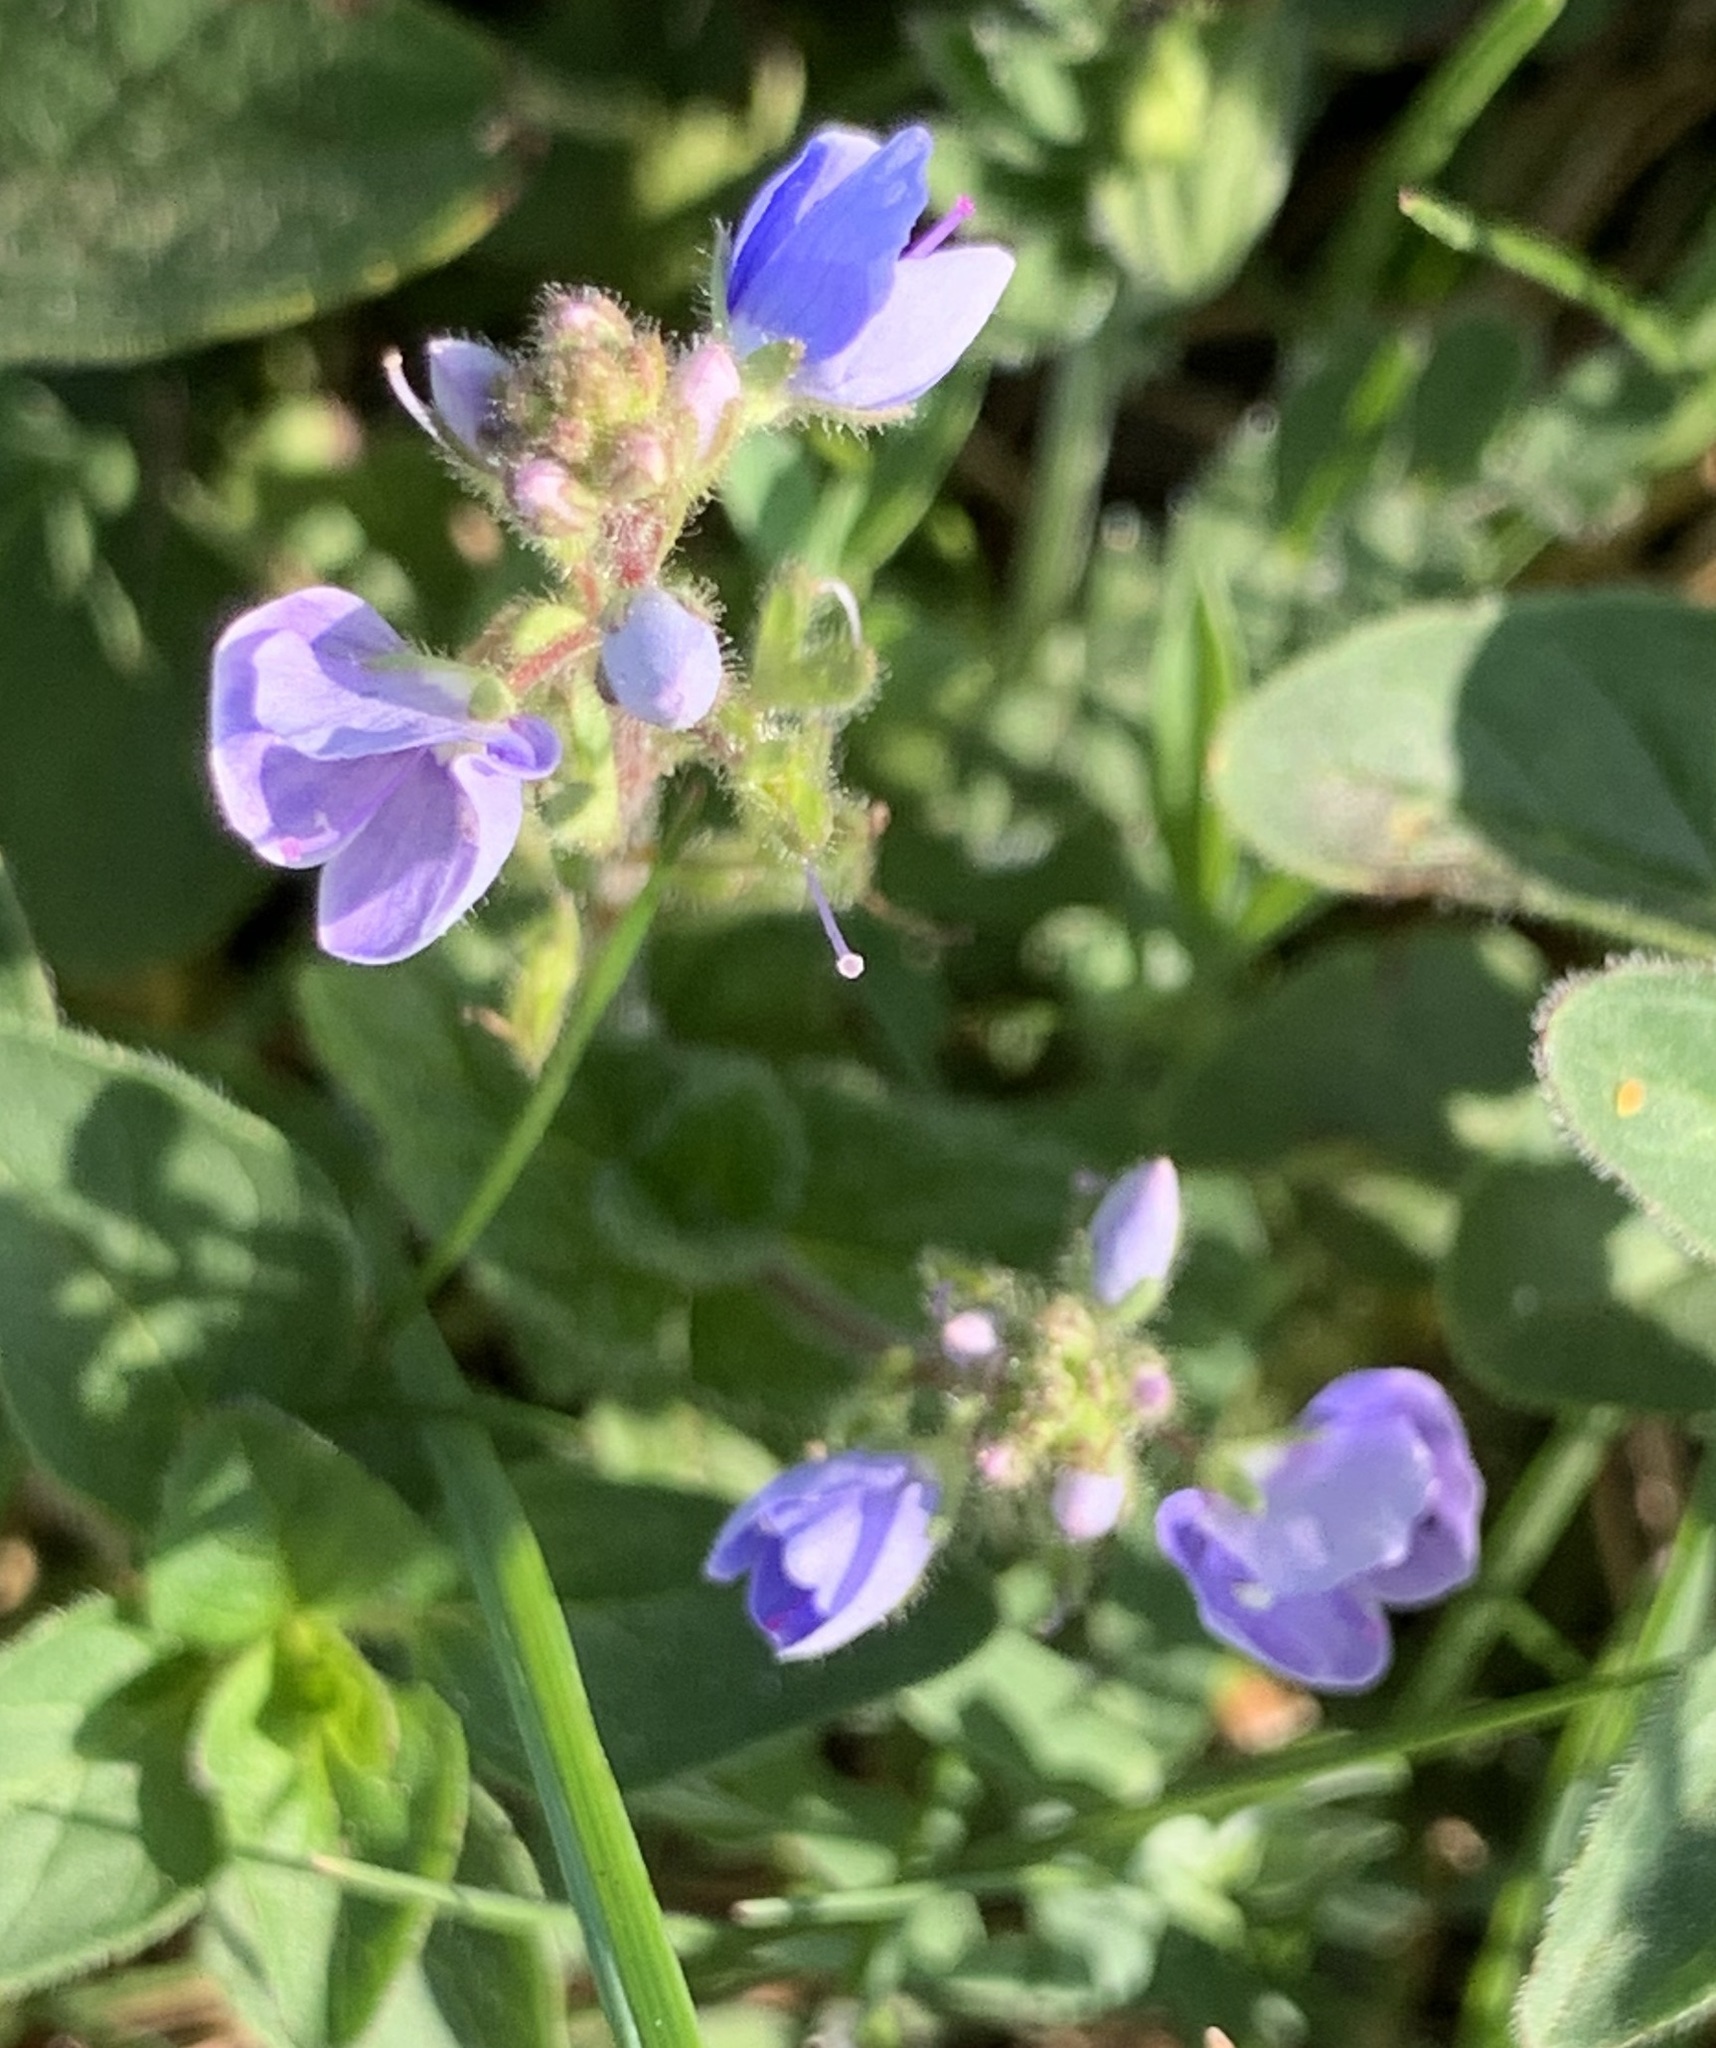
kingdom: Plantae
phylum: Tracheophyta
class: Magnoliopsida
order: Lamiales
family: Plantaginaceae
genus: Veronica
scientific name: Veronica chamaedrys
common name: Germander speedwell
